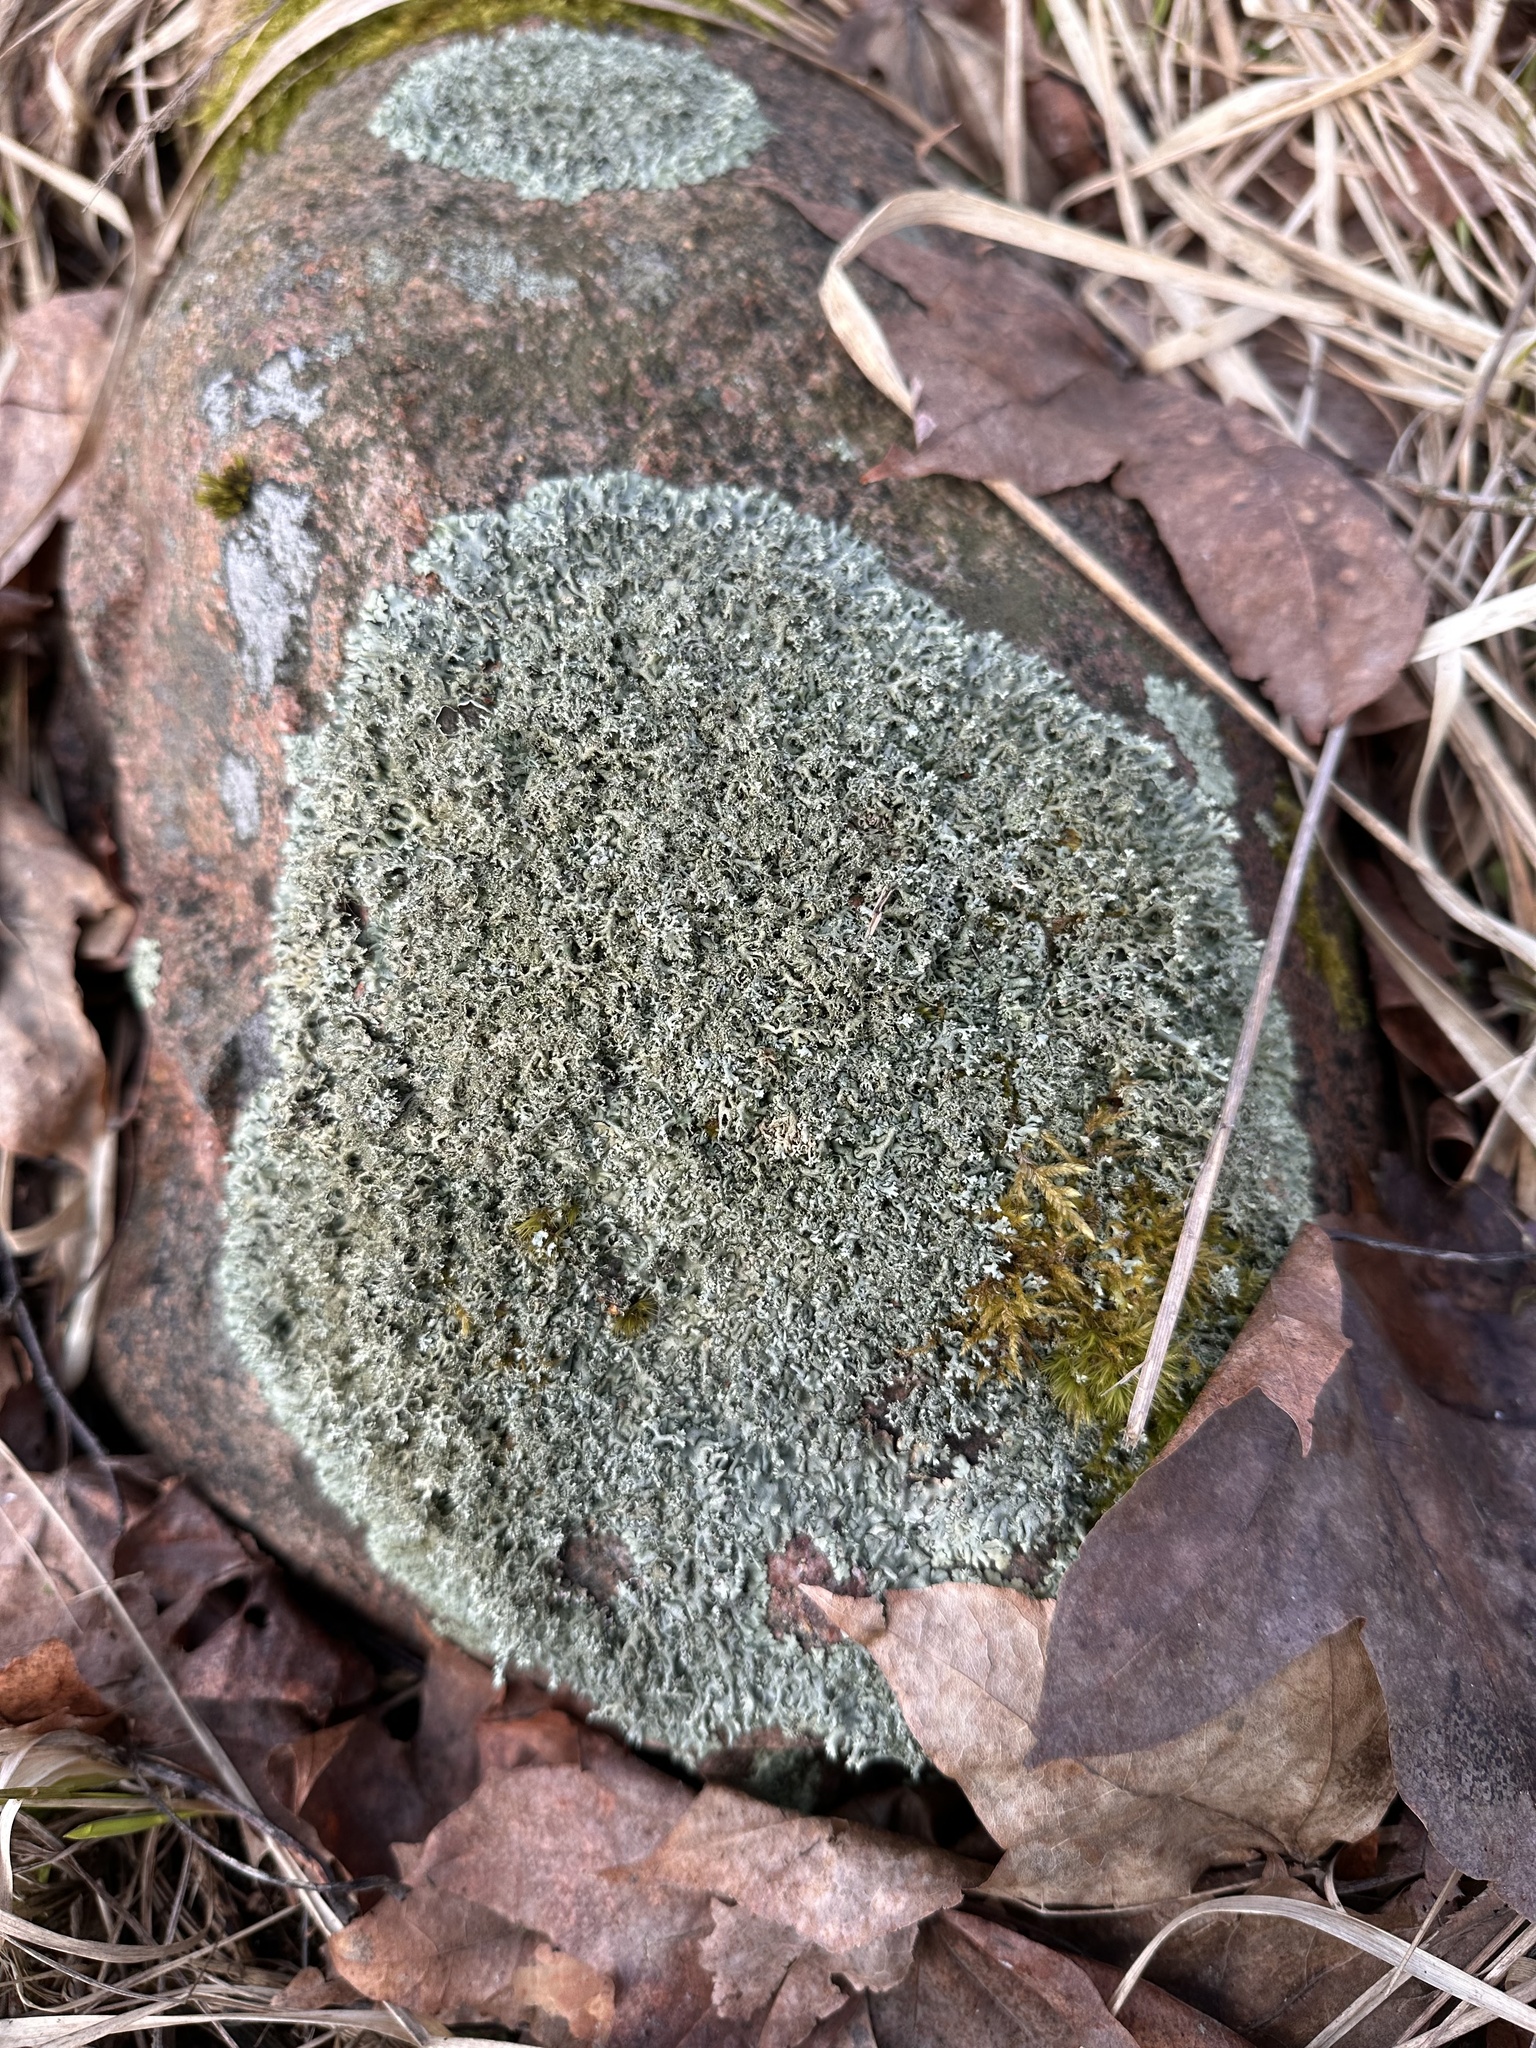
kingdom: Fungi
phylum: Ascomycota
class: Lecanoromycetes
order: Lecanorales
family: Parmeliaceae
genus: Xanthoparmelia
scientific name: Xanthoparmelia conspersa
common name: Peppered rock shield
